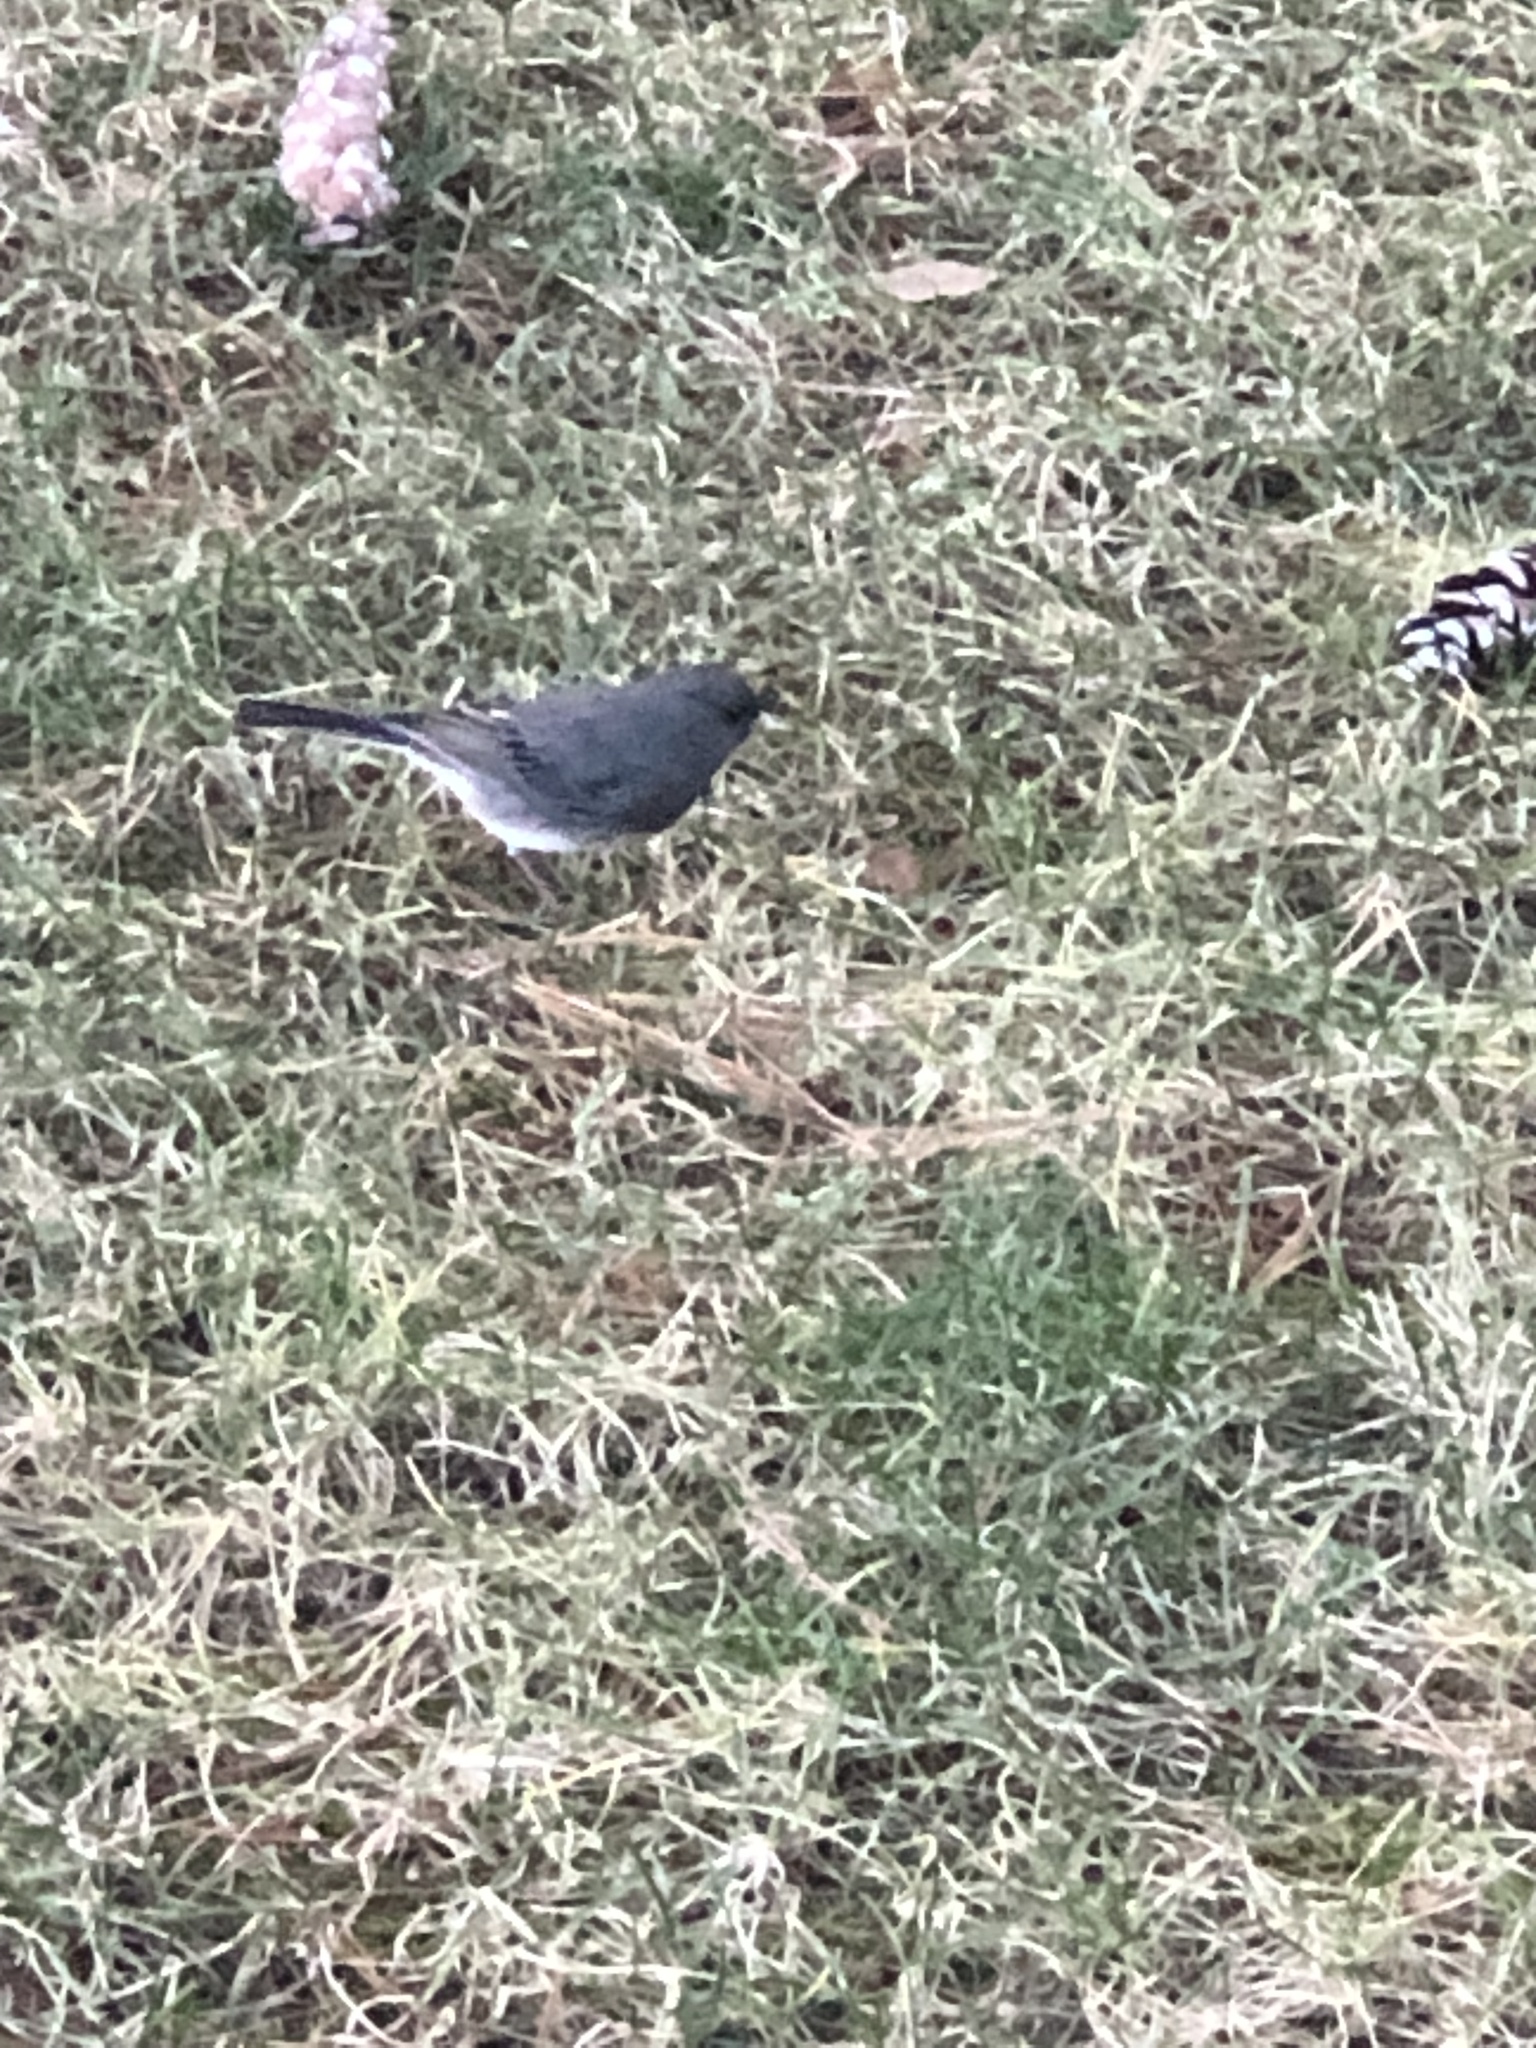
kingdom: Animalia
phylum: Chordata
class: Aves
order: Passeriformes
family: Passerellidae
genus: Junco
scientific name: Junco hyemalis
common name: Dark-eyed junco
